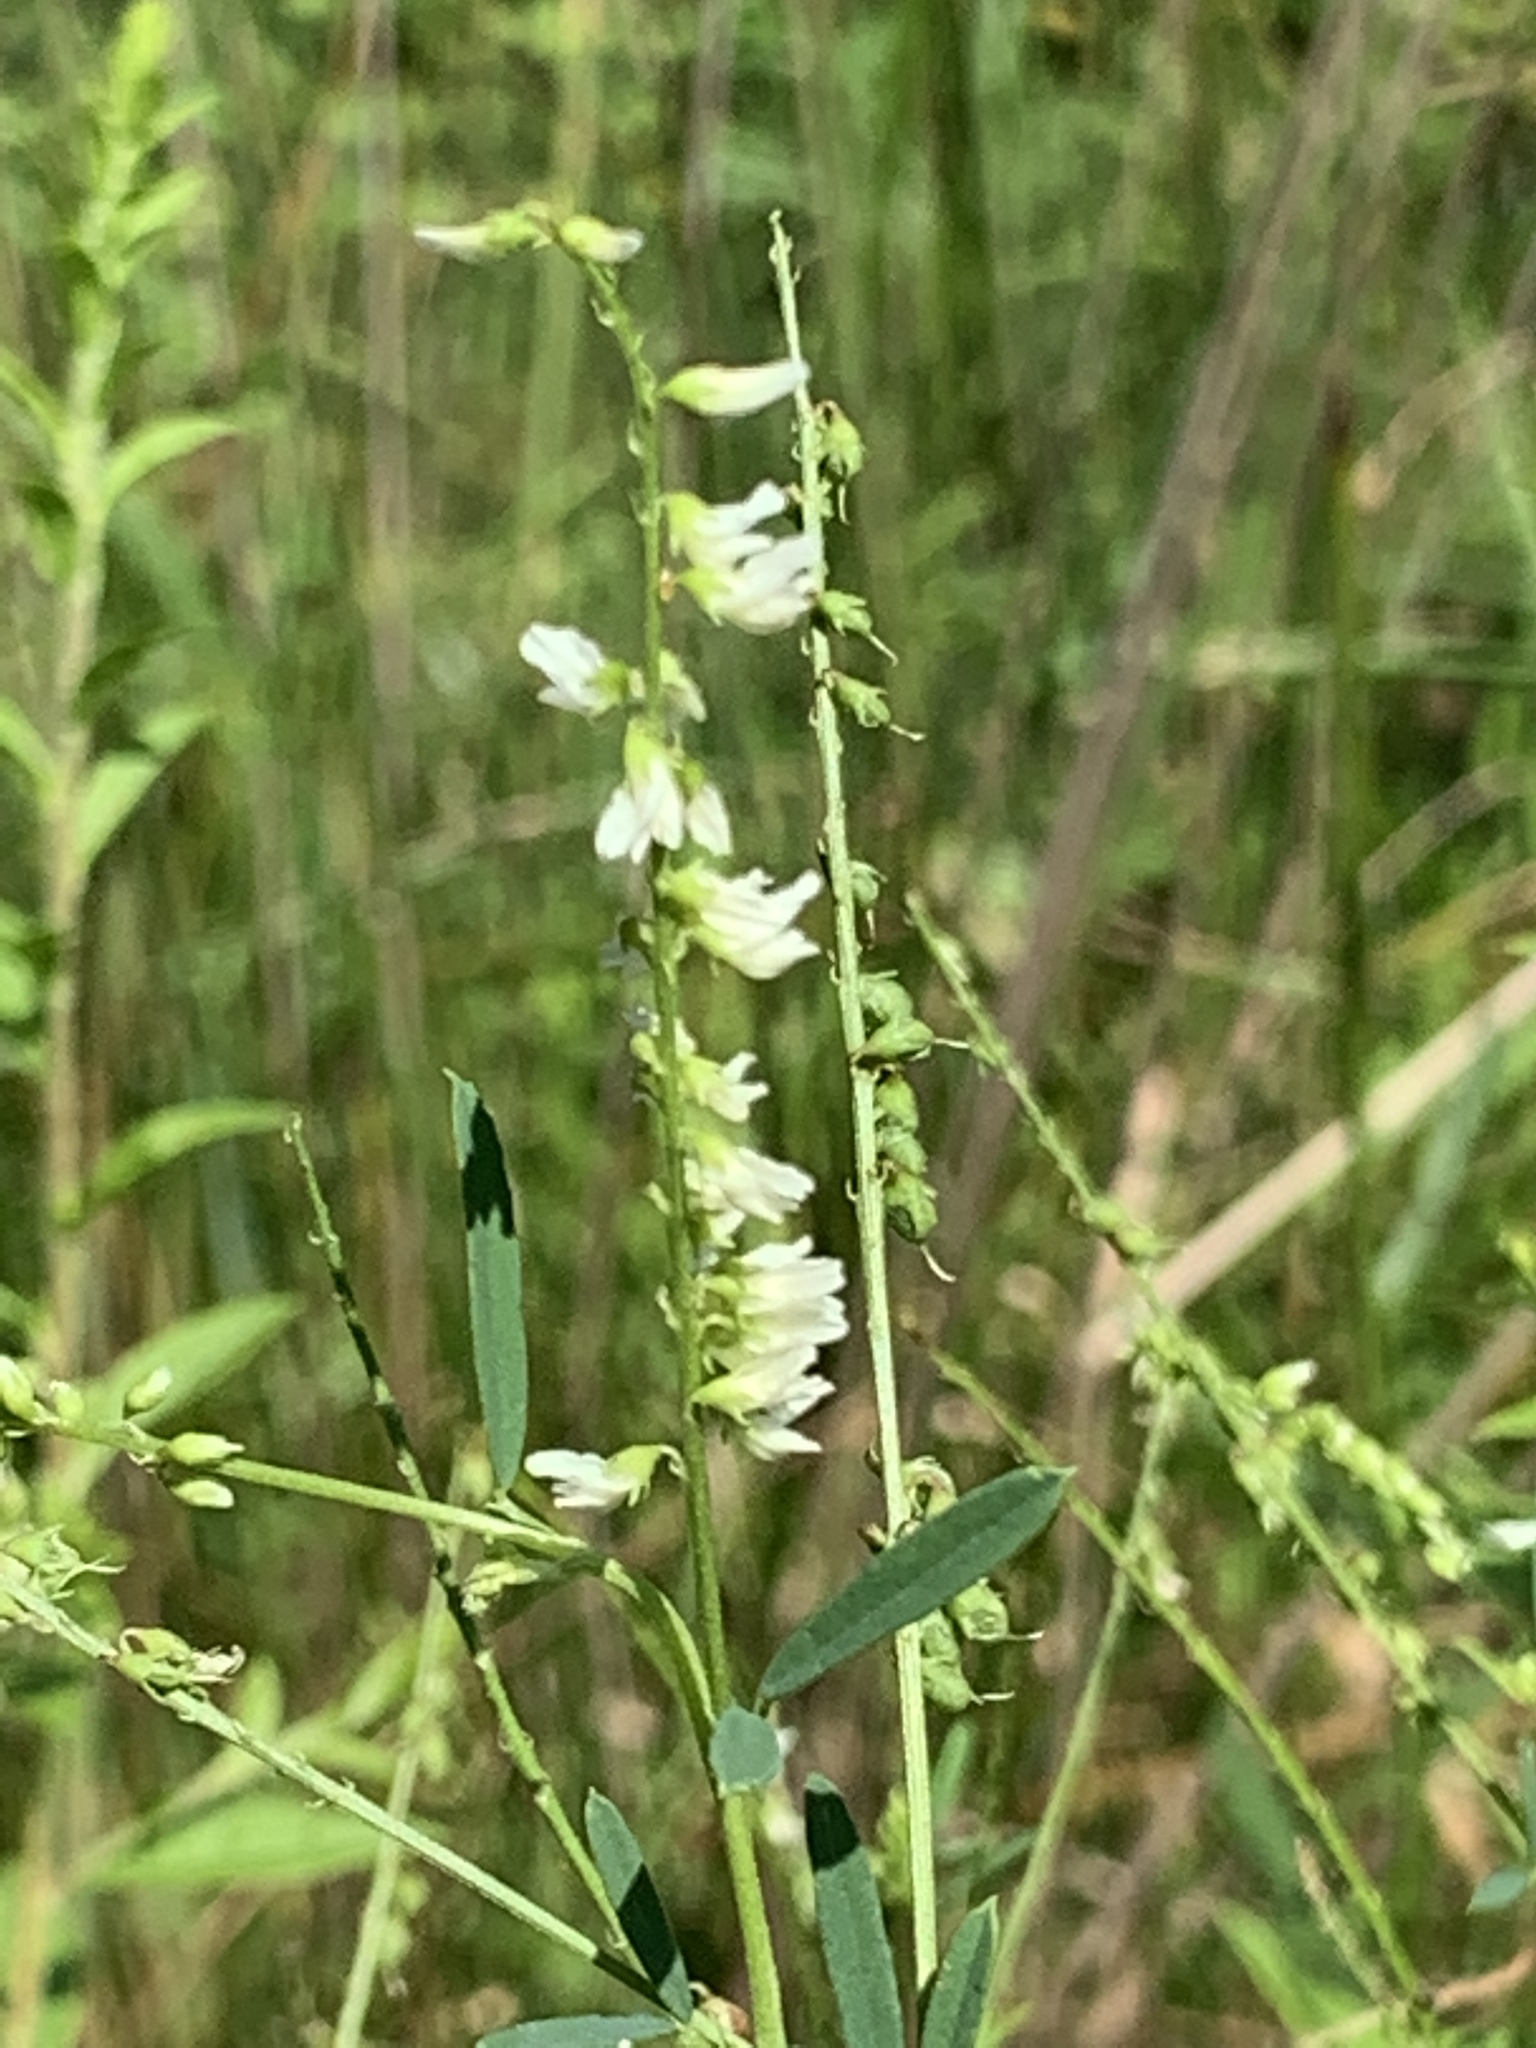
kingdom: Plantae
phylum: Tracheophyta
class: Magnoliopsida
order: Fabales
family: Fabaceae
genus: Melilotus
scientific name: Melilotus albus
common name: White melilot
